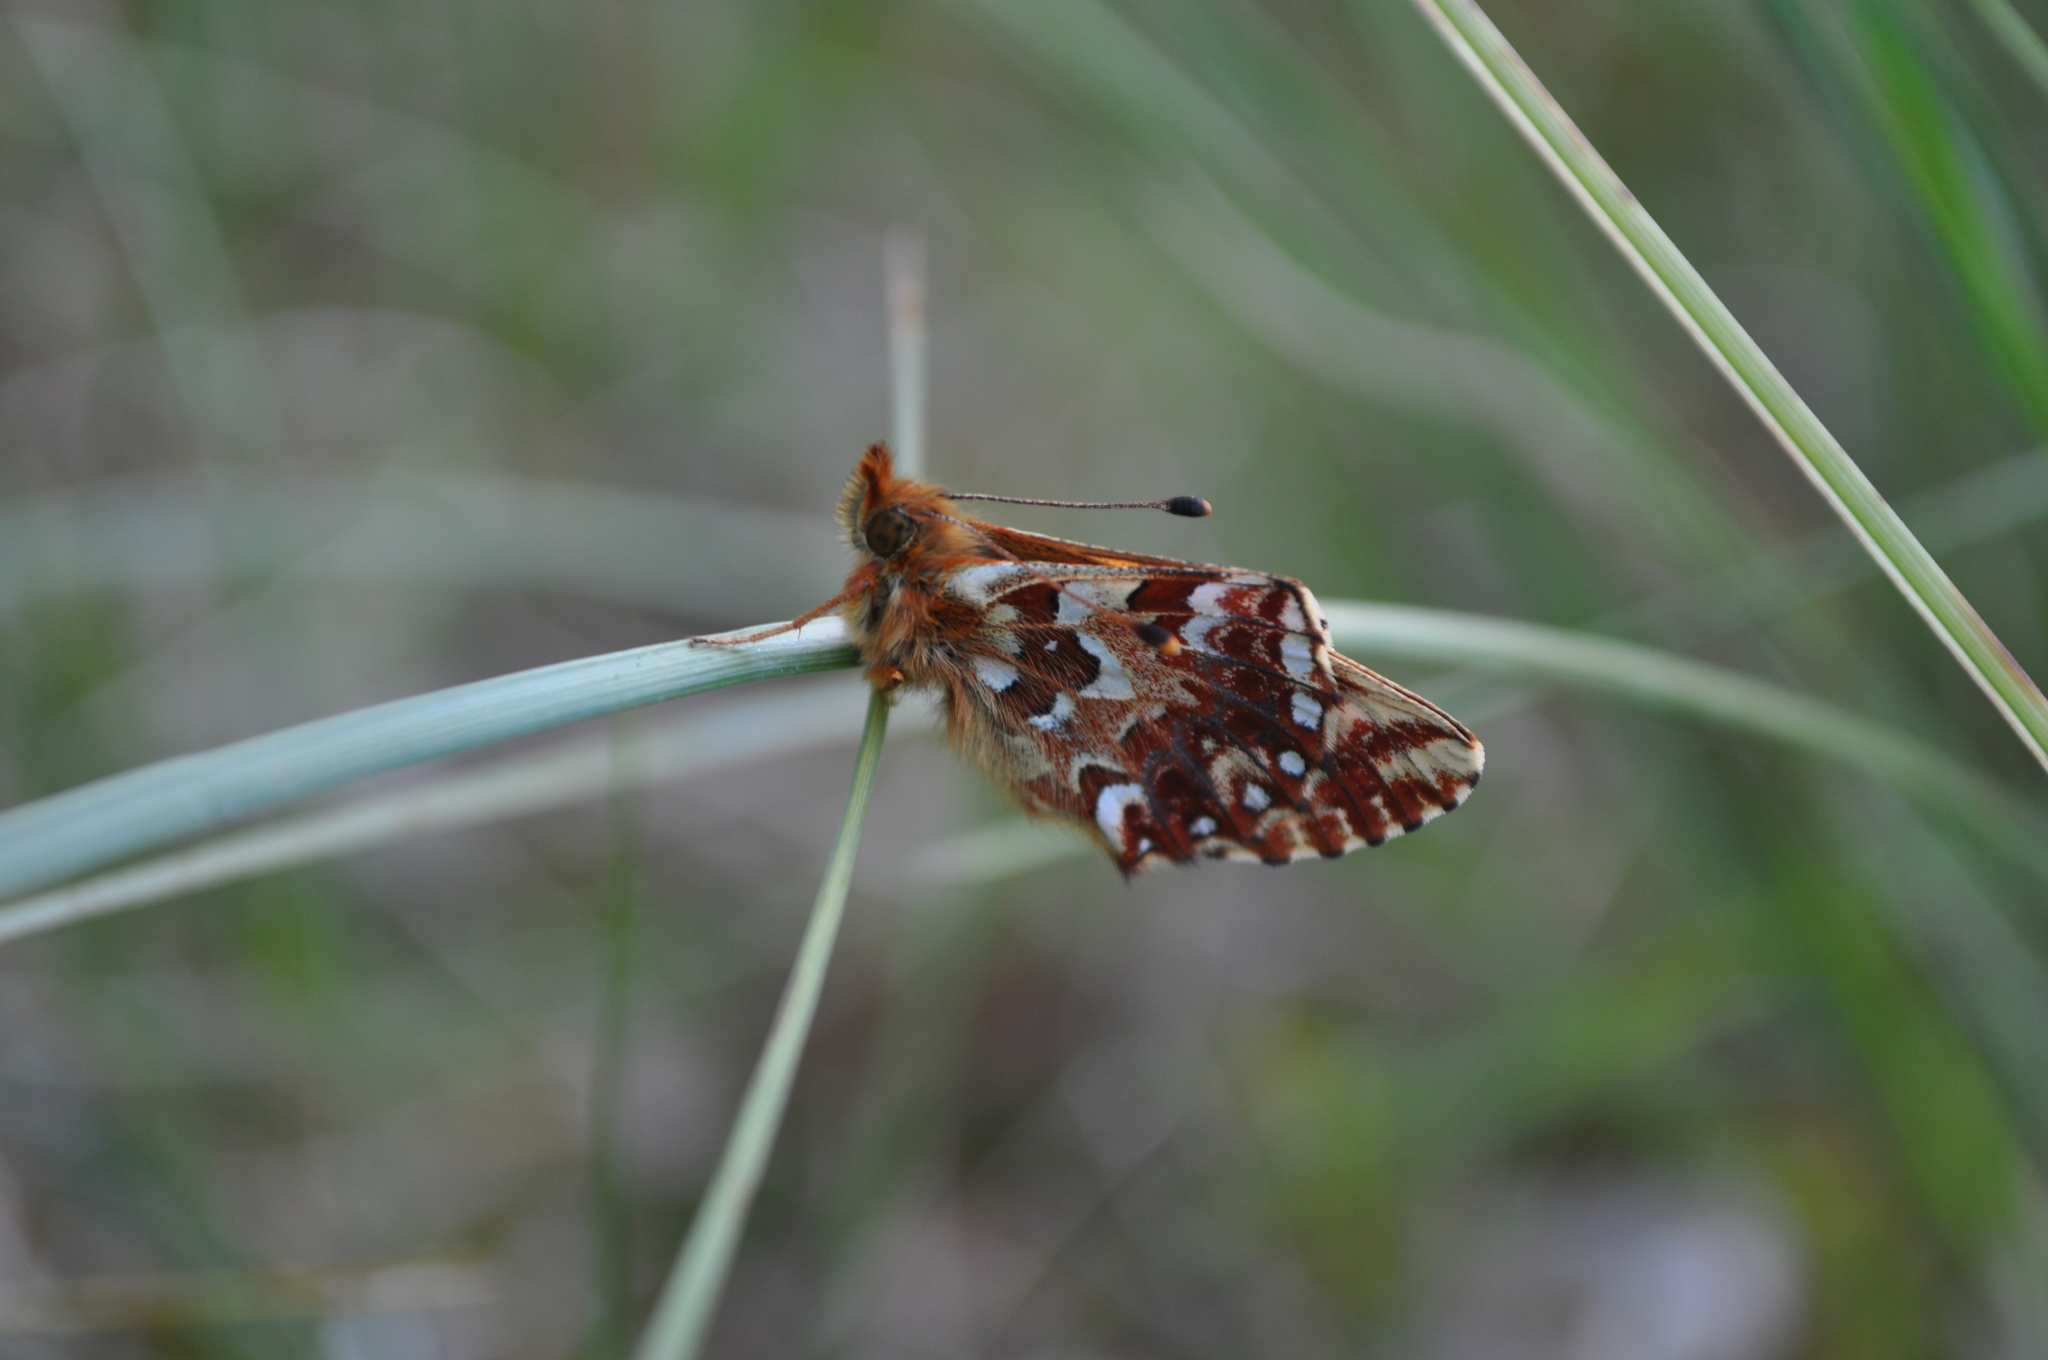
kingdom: Animalia
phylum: Arthropoda
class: Insecta
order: Lepidoptera
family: Nymphalidae
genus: Boloria
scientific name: Boloria aquilonaris
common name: Cranberry fritillary
